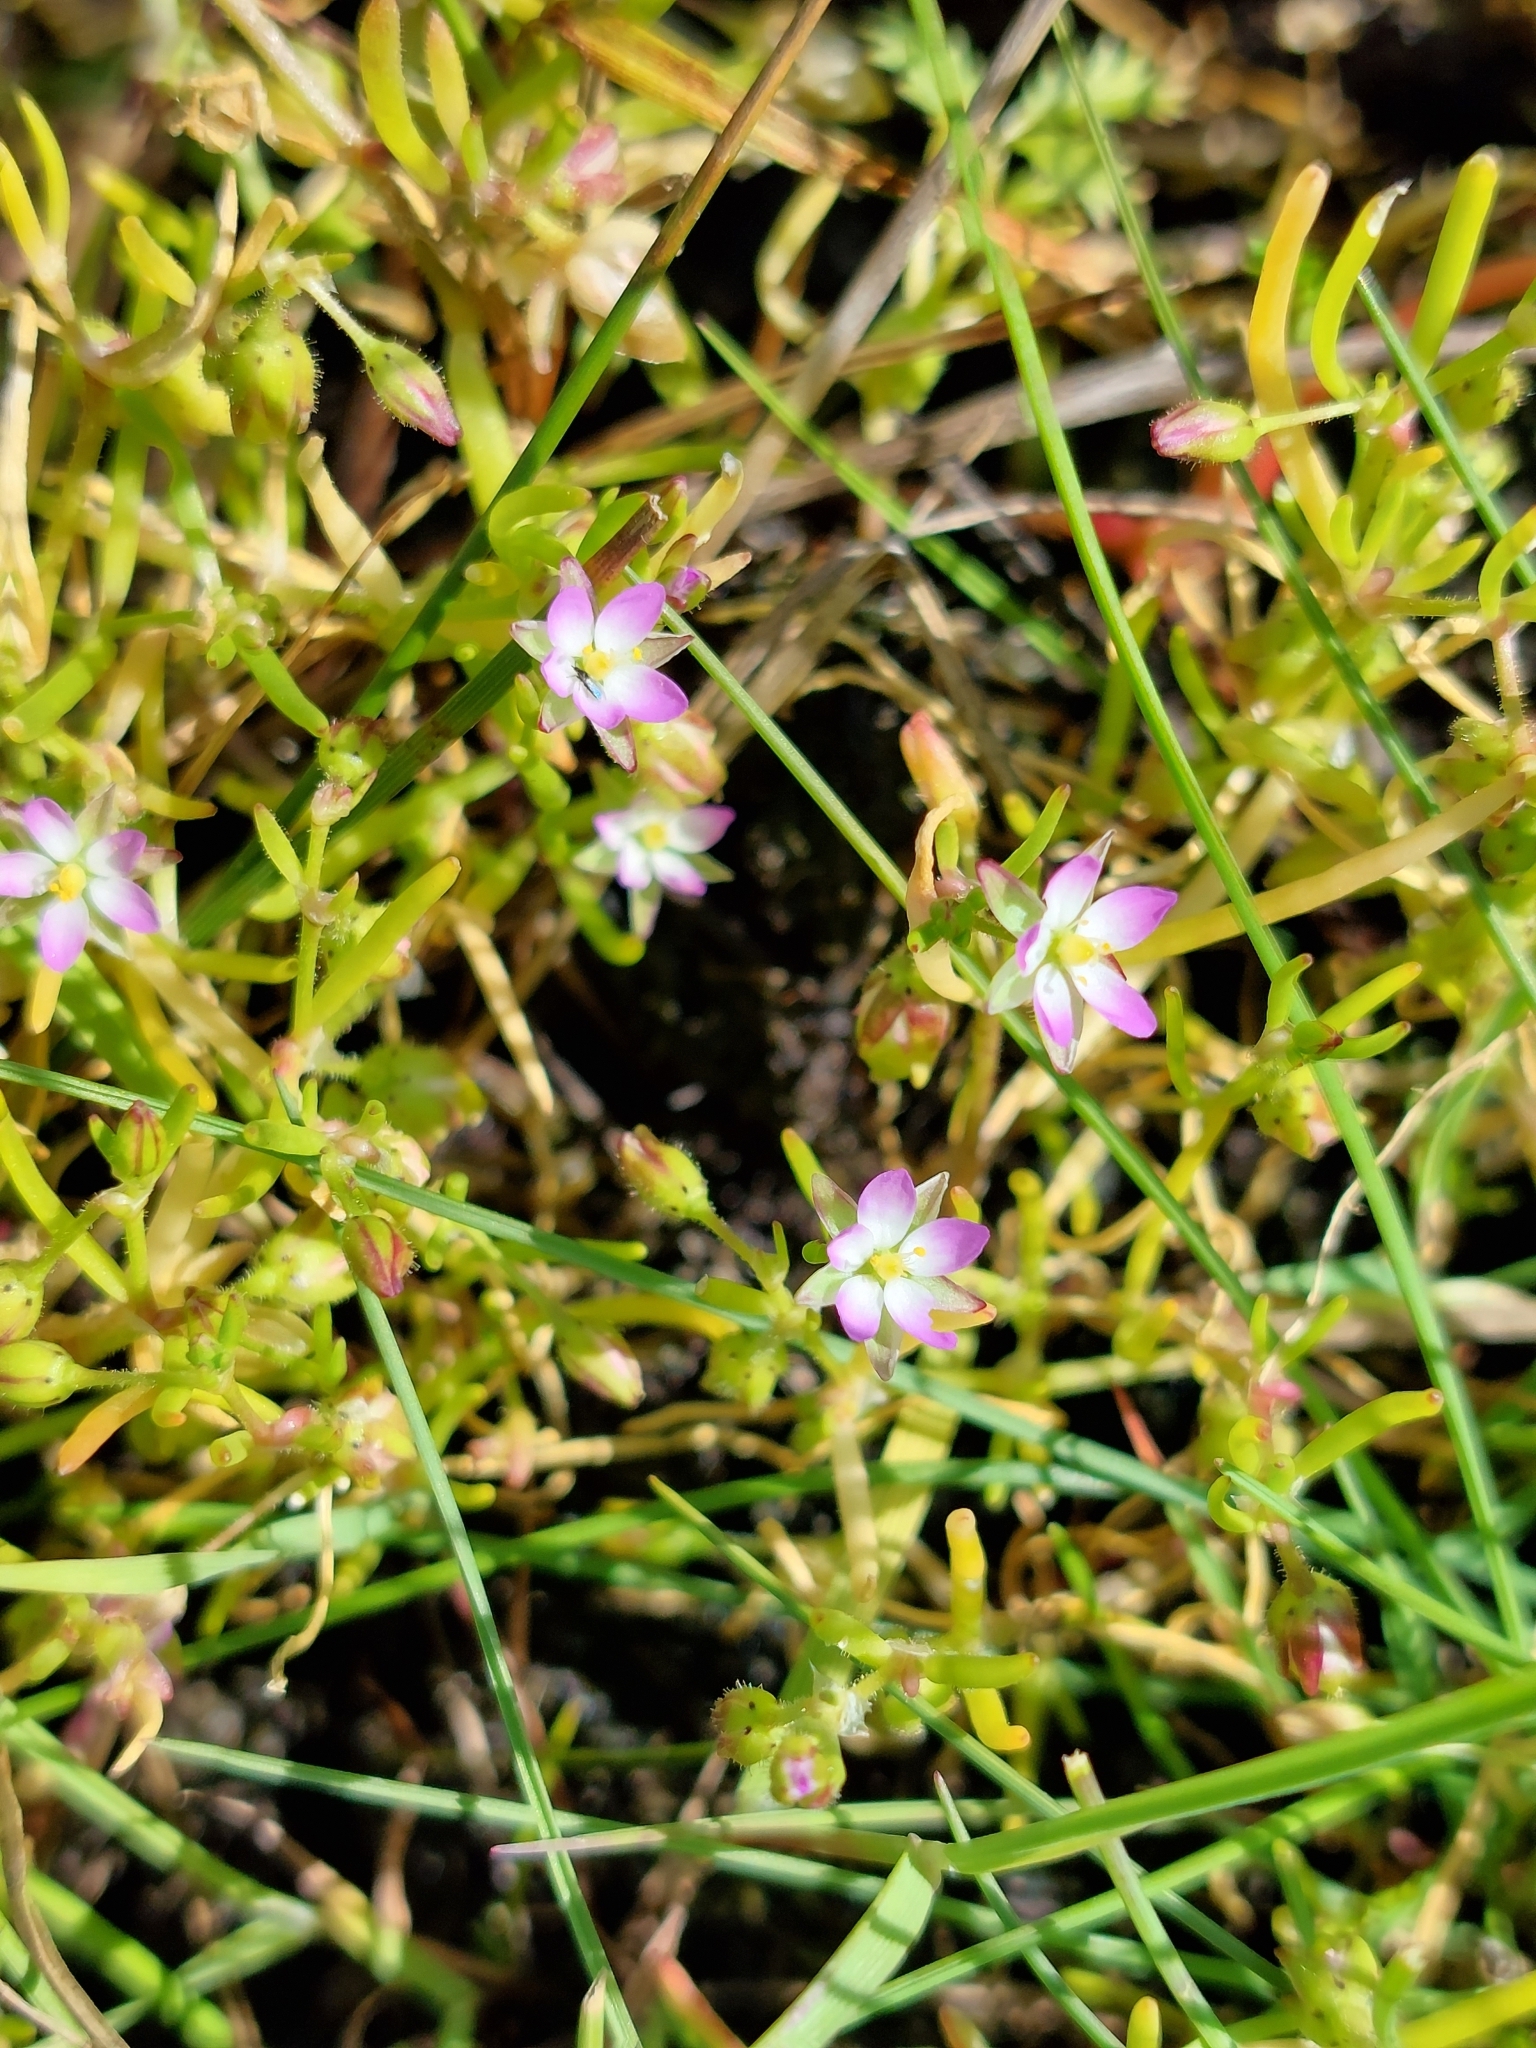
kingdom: Plantae
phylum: Tracheophyta
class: Magnoliopsida
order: Caryophyllales
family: Caryophyllaceae
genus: Spergularia
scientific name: Spergularia marina
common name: Lesser sea-spurrey
